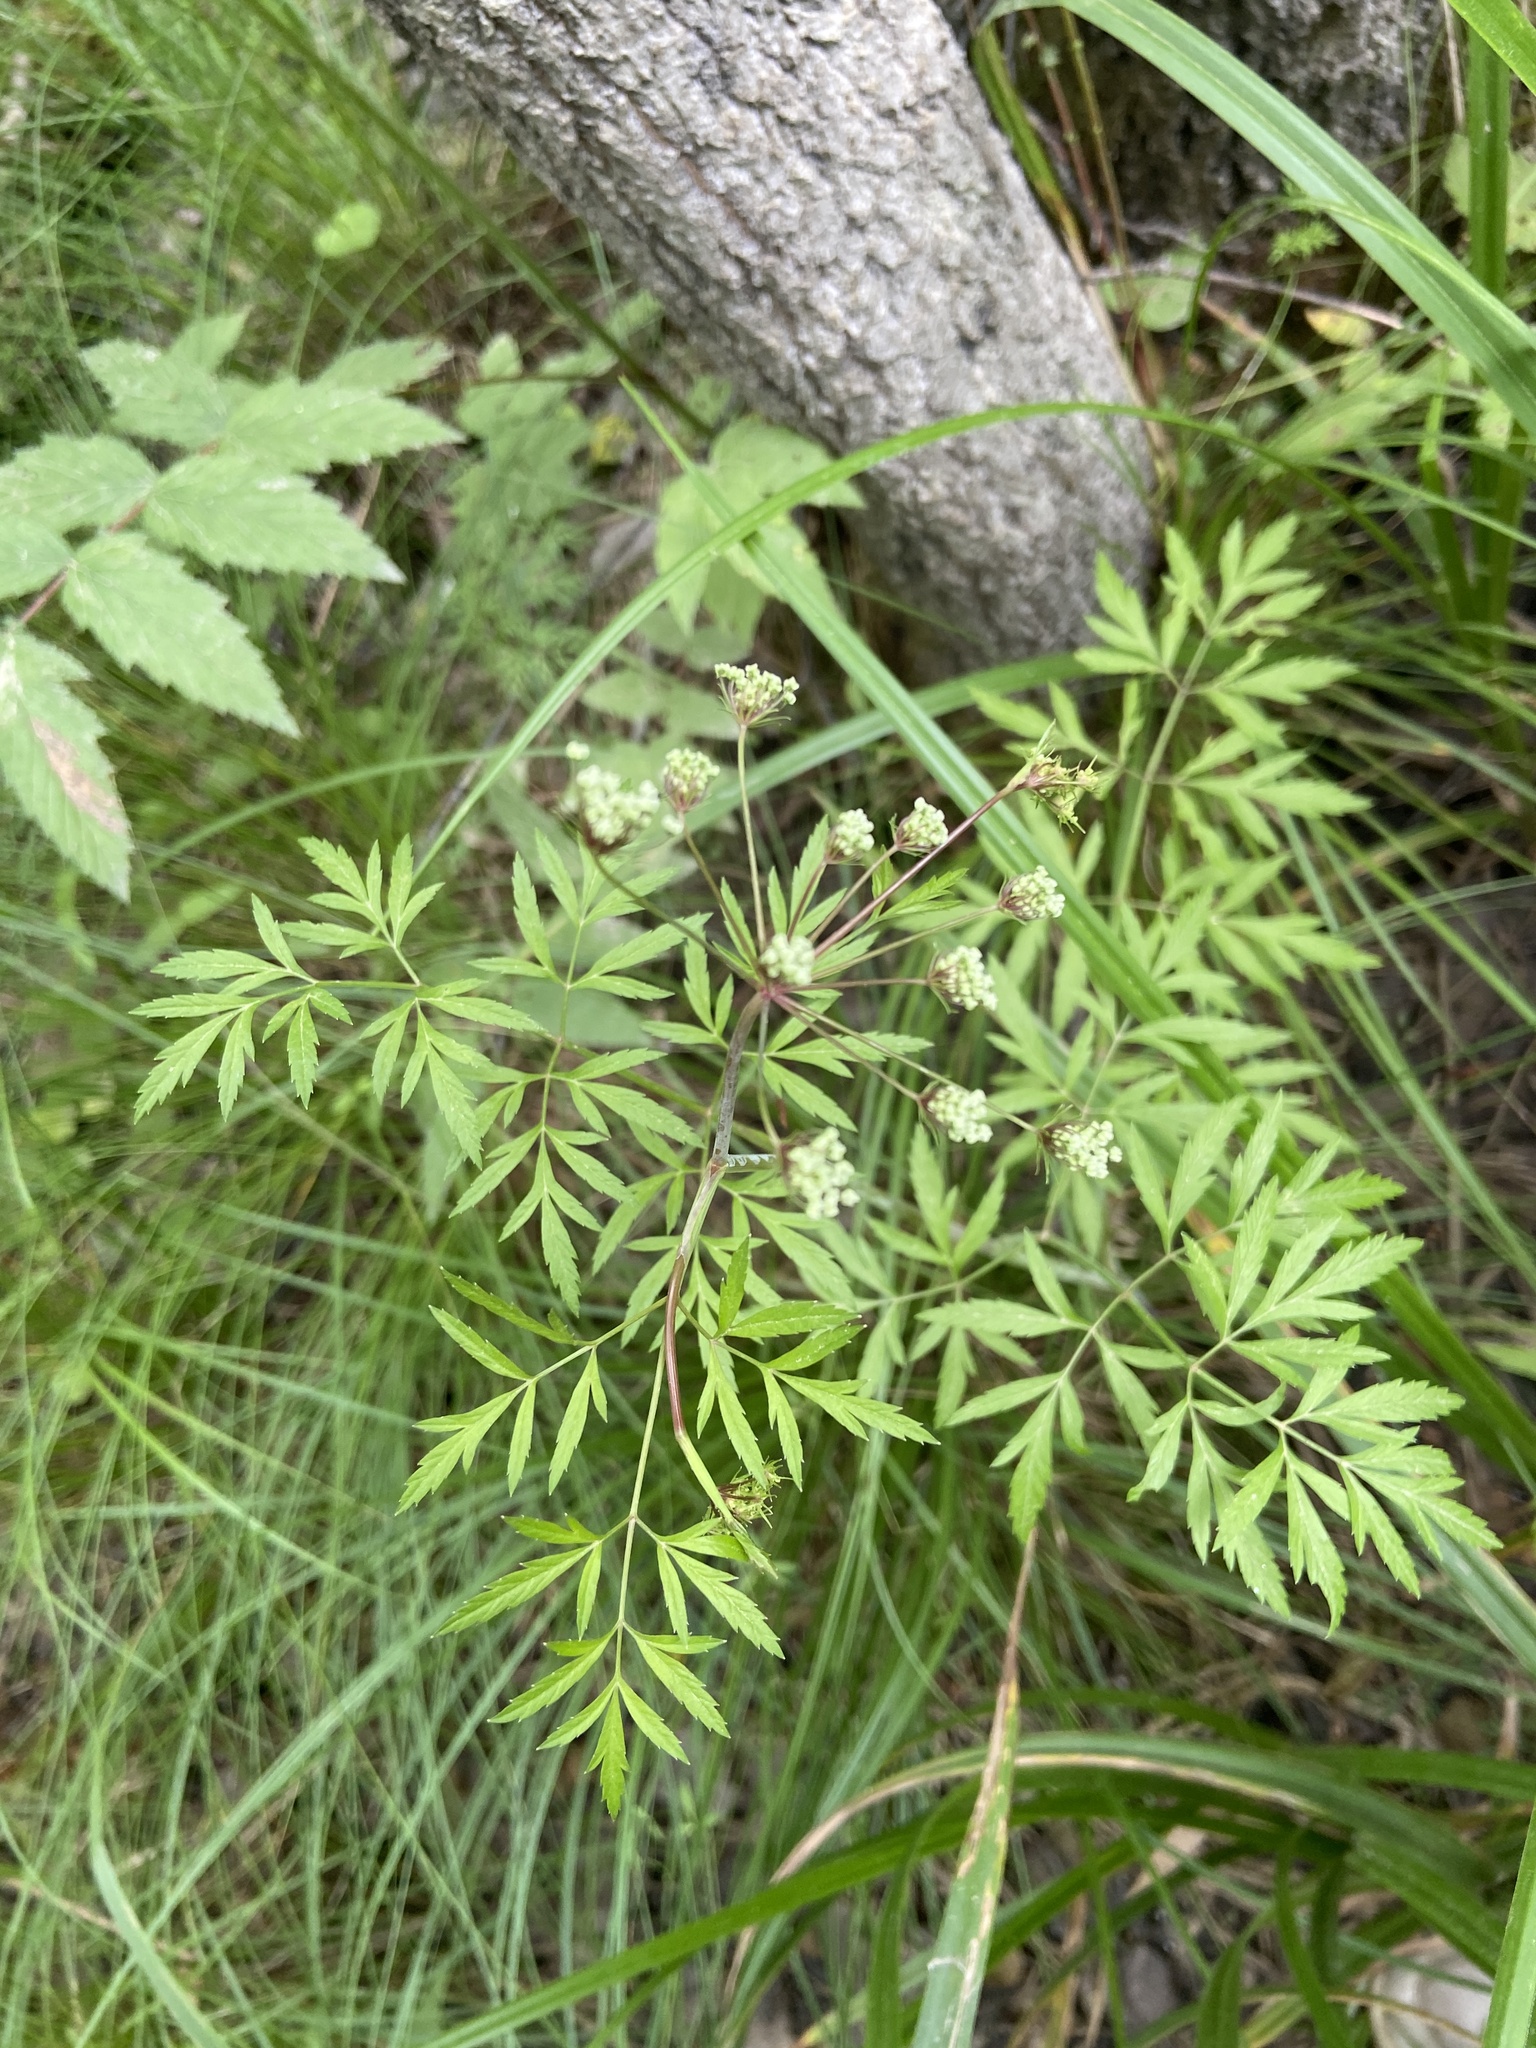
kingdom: Plantae
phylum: Tracheophyta
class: Magnoliopsida
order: Apiales
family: Apiaceae
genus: Cicuta
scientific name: Cicuta virosa
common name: Cowbane
